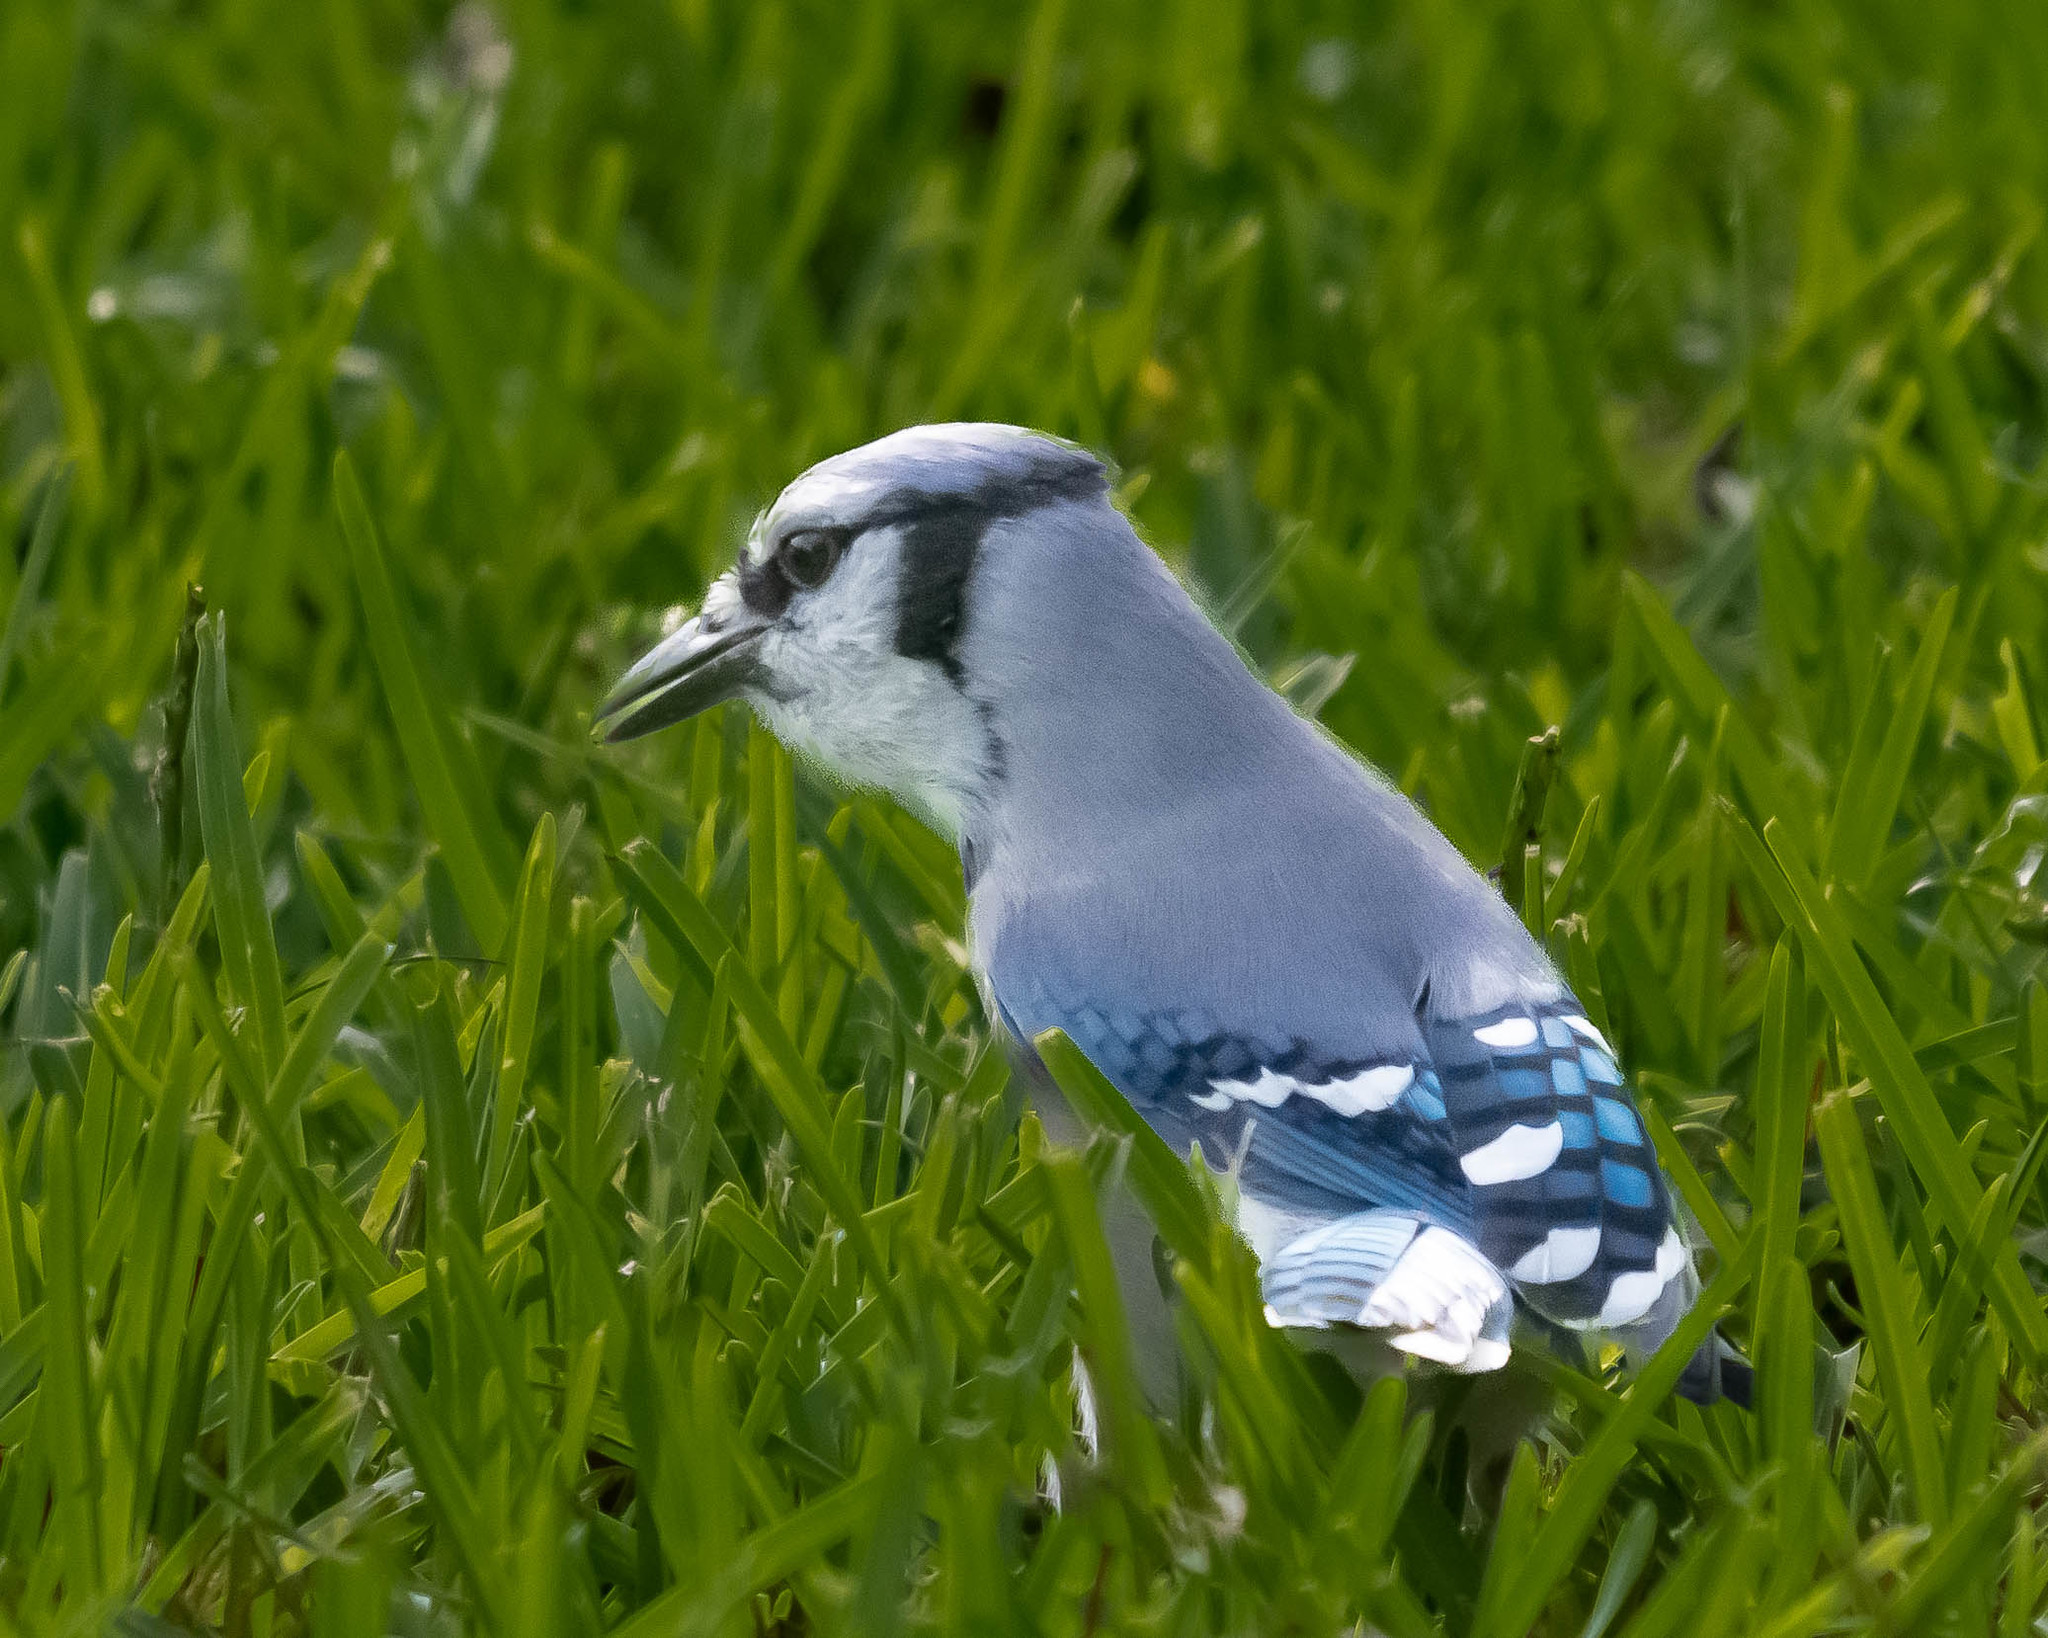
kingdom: Animalia
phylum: Chordata
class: Aves
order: Passeriformes
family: Corvidae
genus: Cyanocitta
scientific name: Cyanocitta cristata
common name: Blue jay
